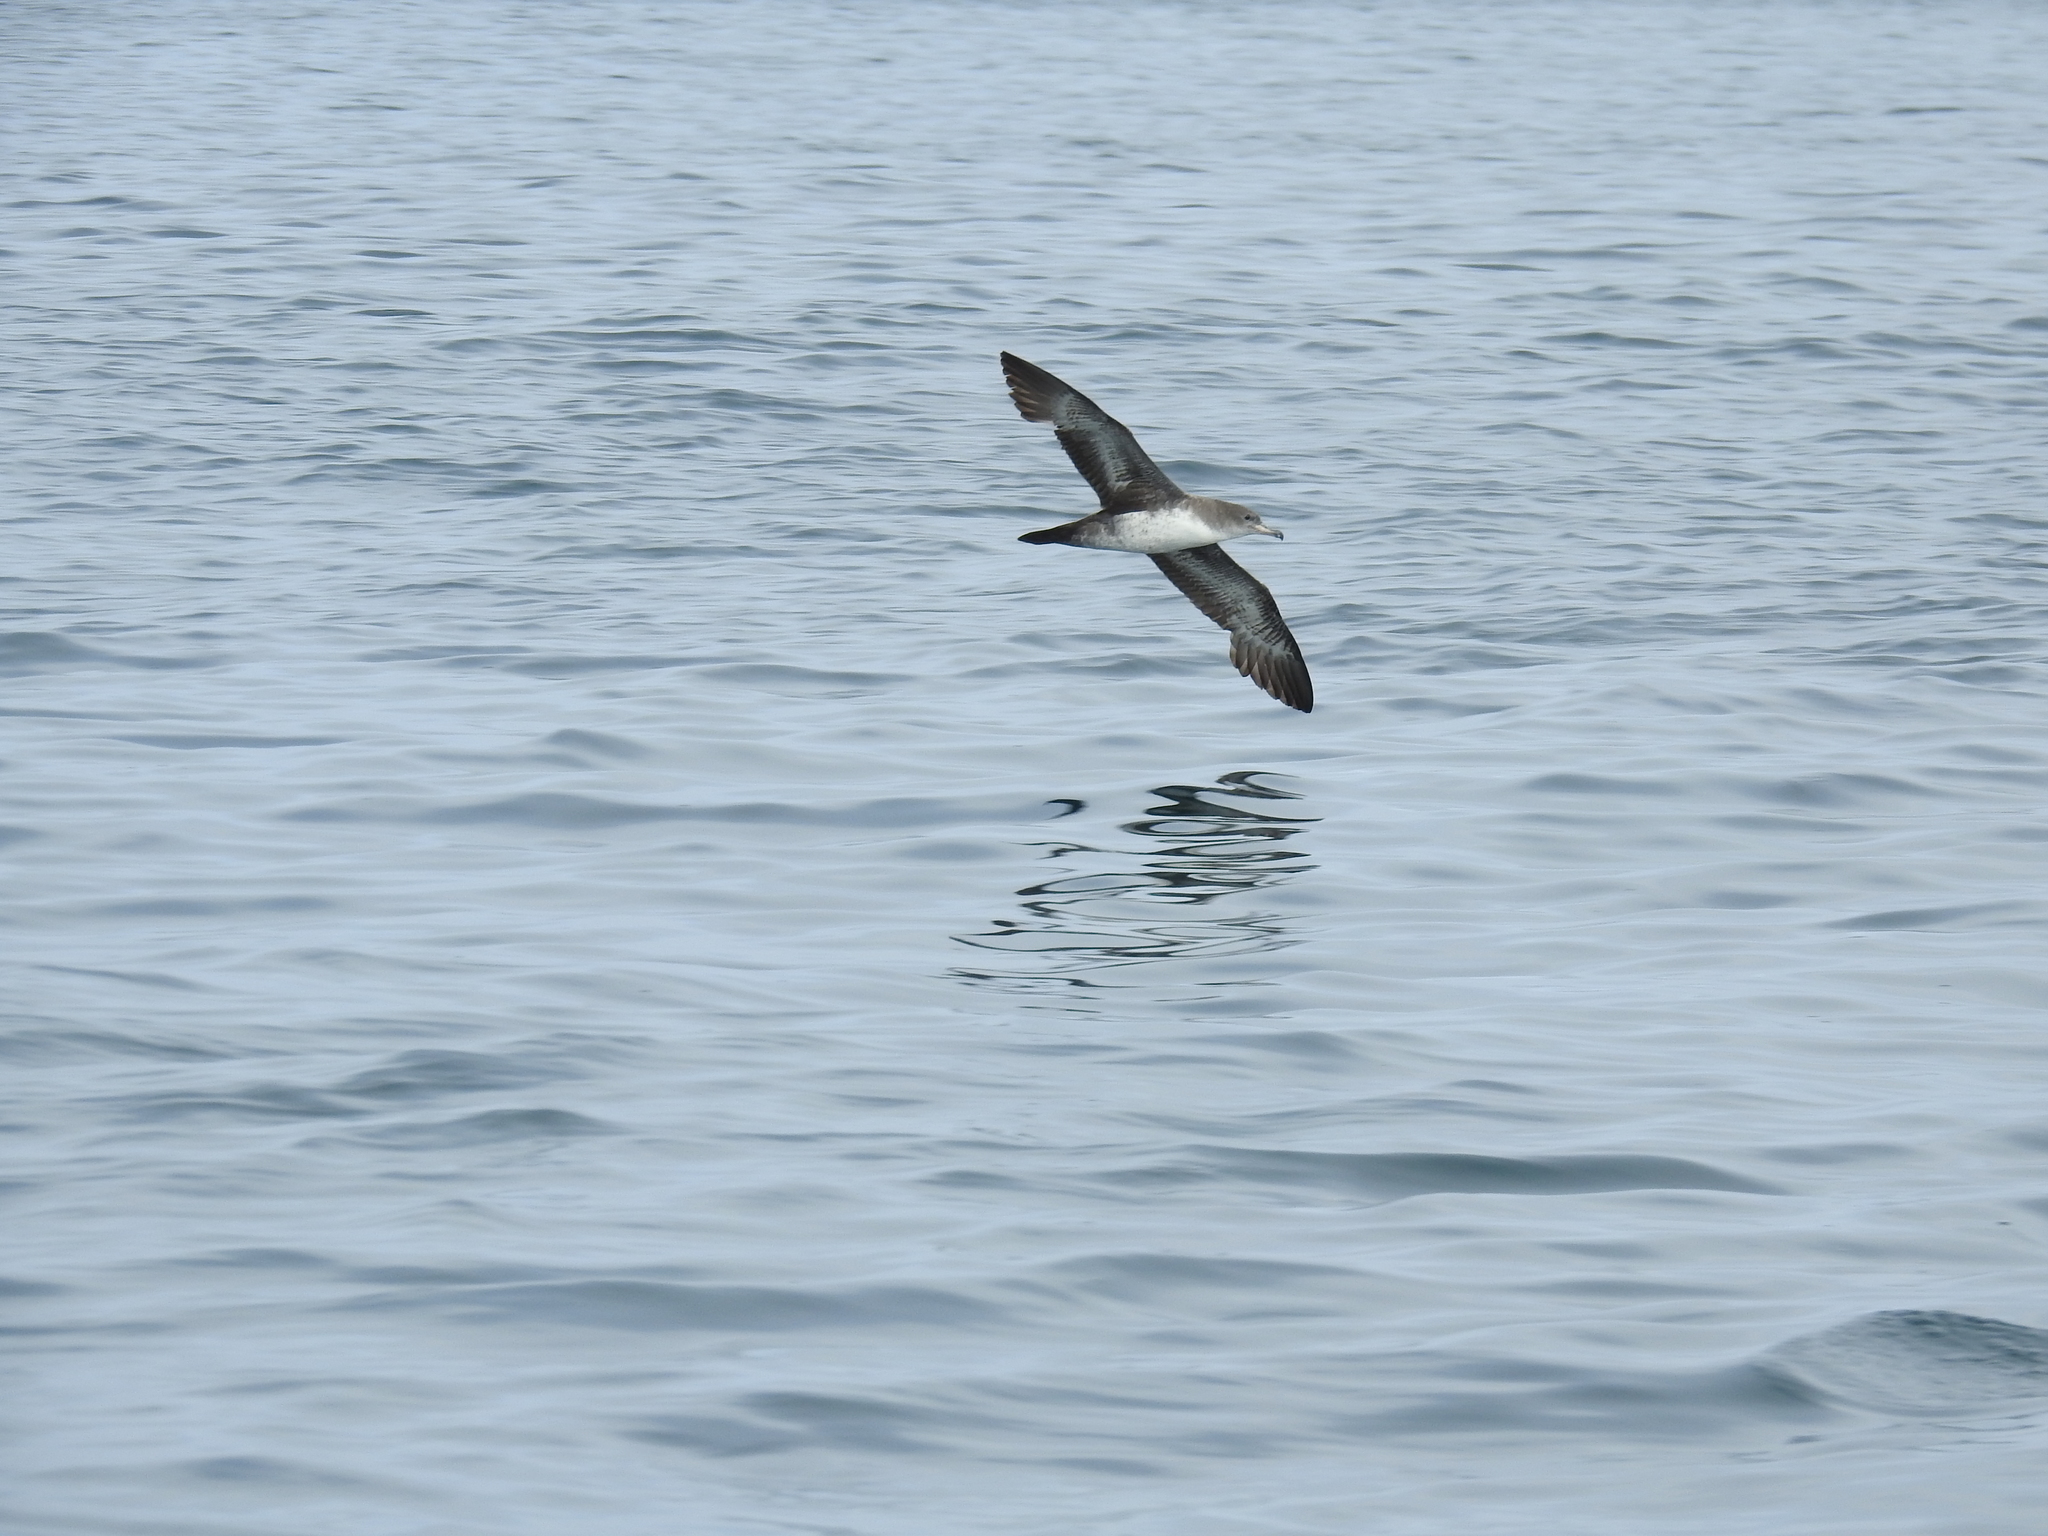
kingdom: Animalia
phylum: Chordata
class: Aves
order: Procellariiformes
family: Procellariidae
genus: Puffinus
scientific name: Puffinus creatopus
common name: Pink-footed shearwater
